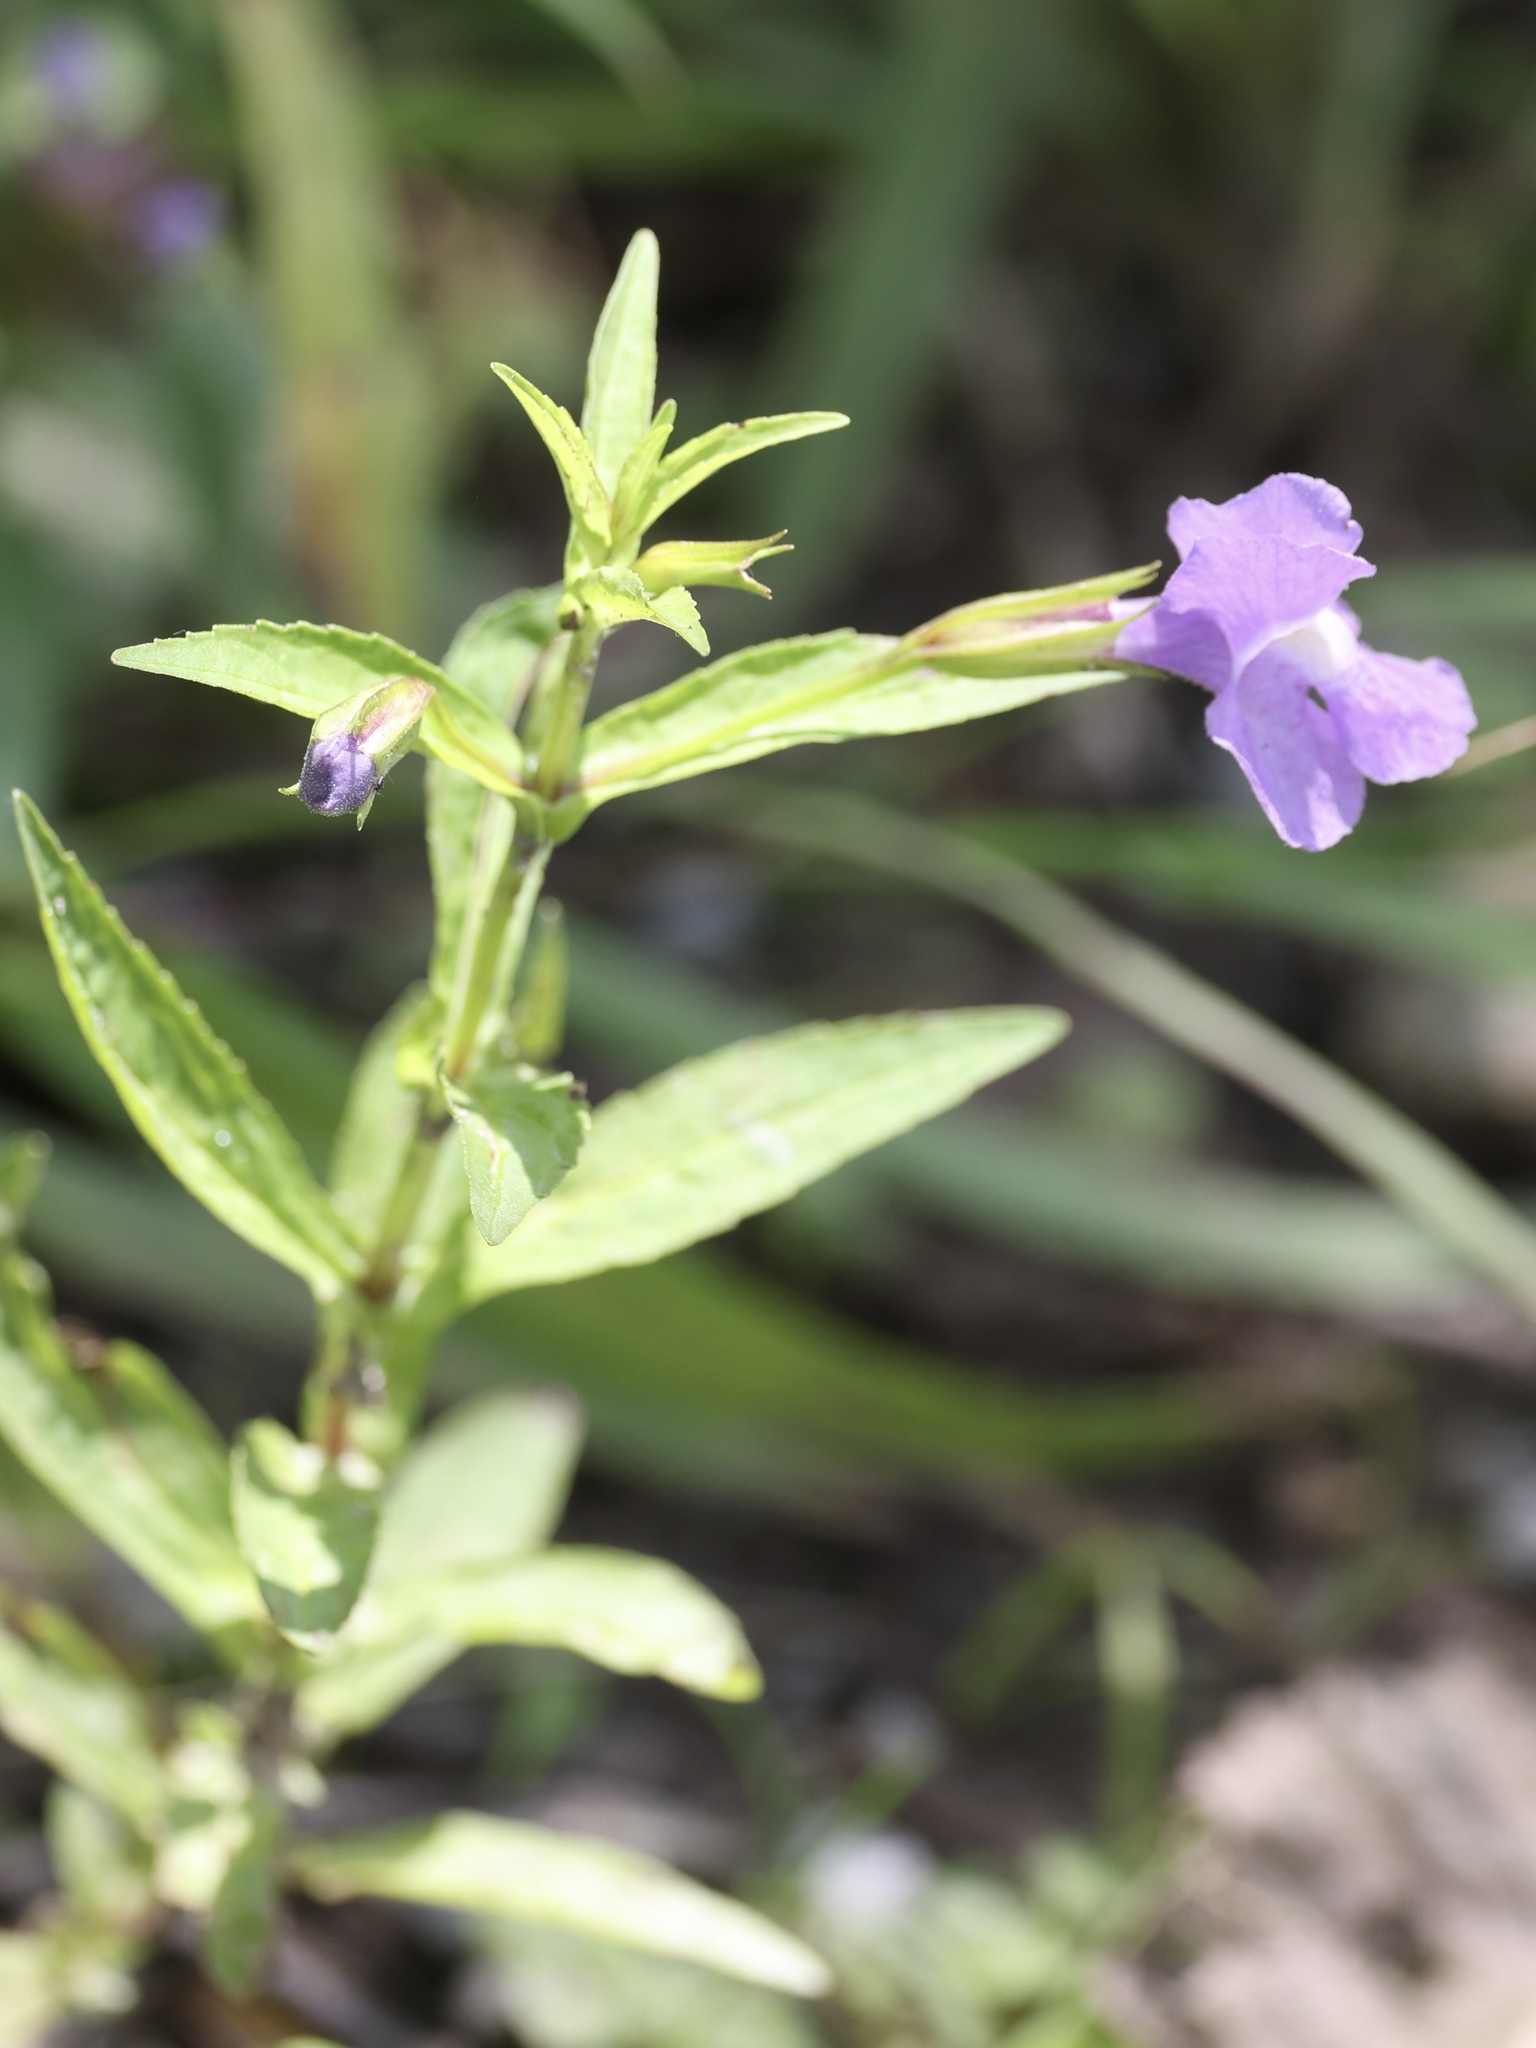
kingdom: Plantae
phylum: Tracheophyta
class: Magnoliopsida
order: Lamiales
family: Phrymaceae
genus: Mimulus
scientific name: Mimulus ringens
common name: Allegheny monkeyflower
